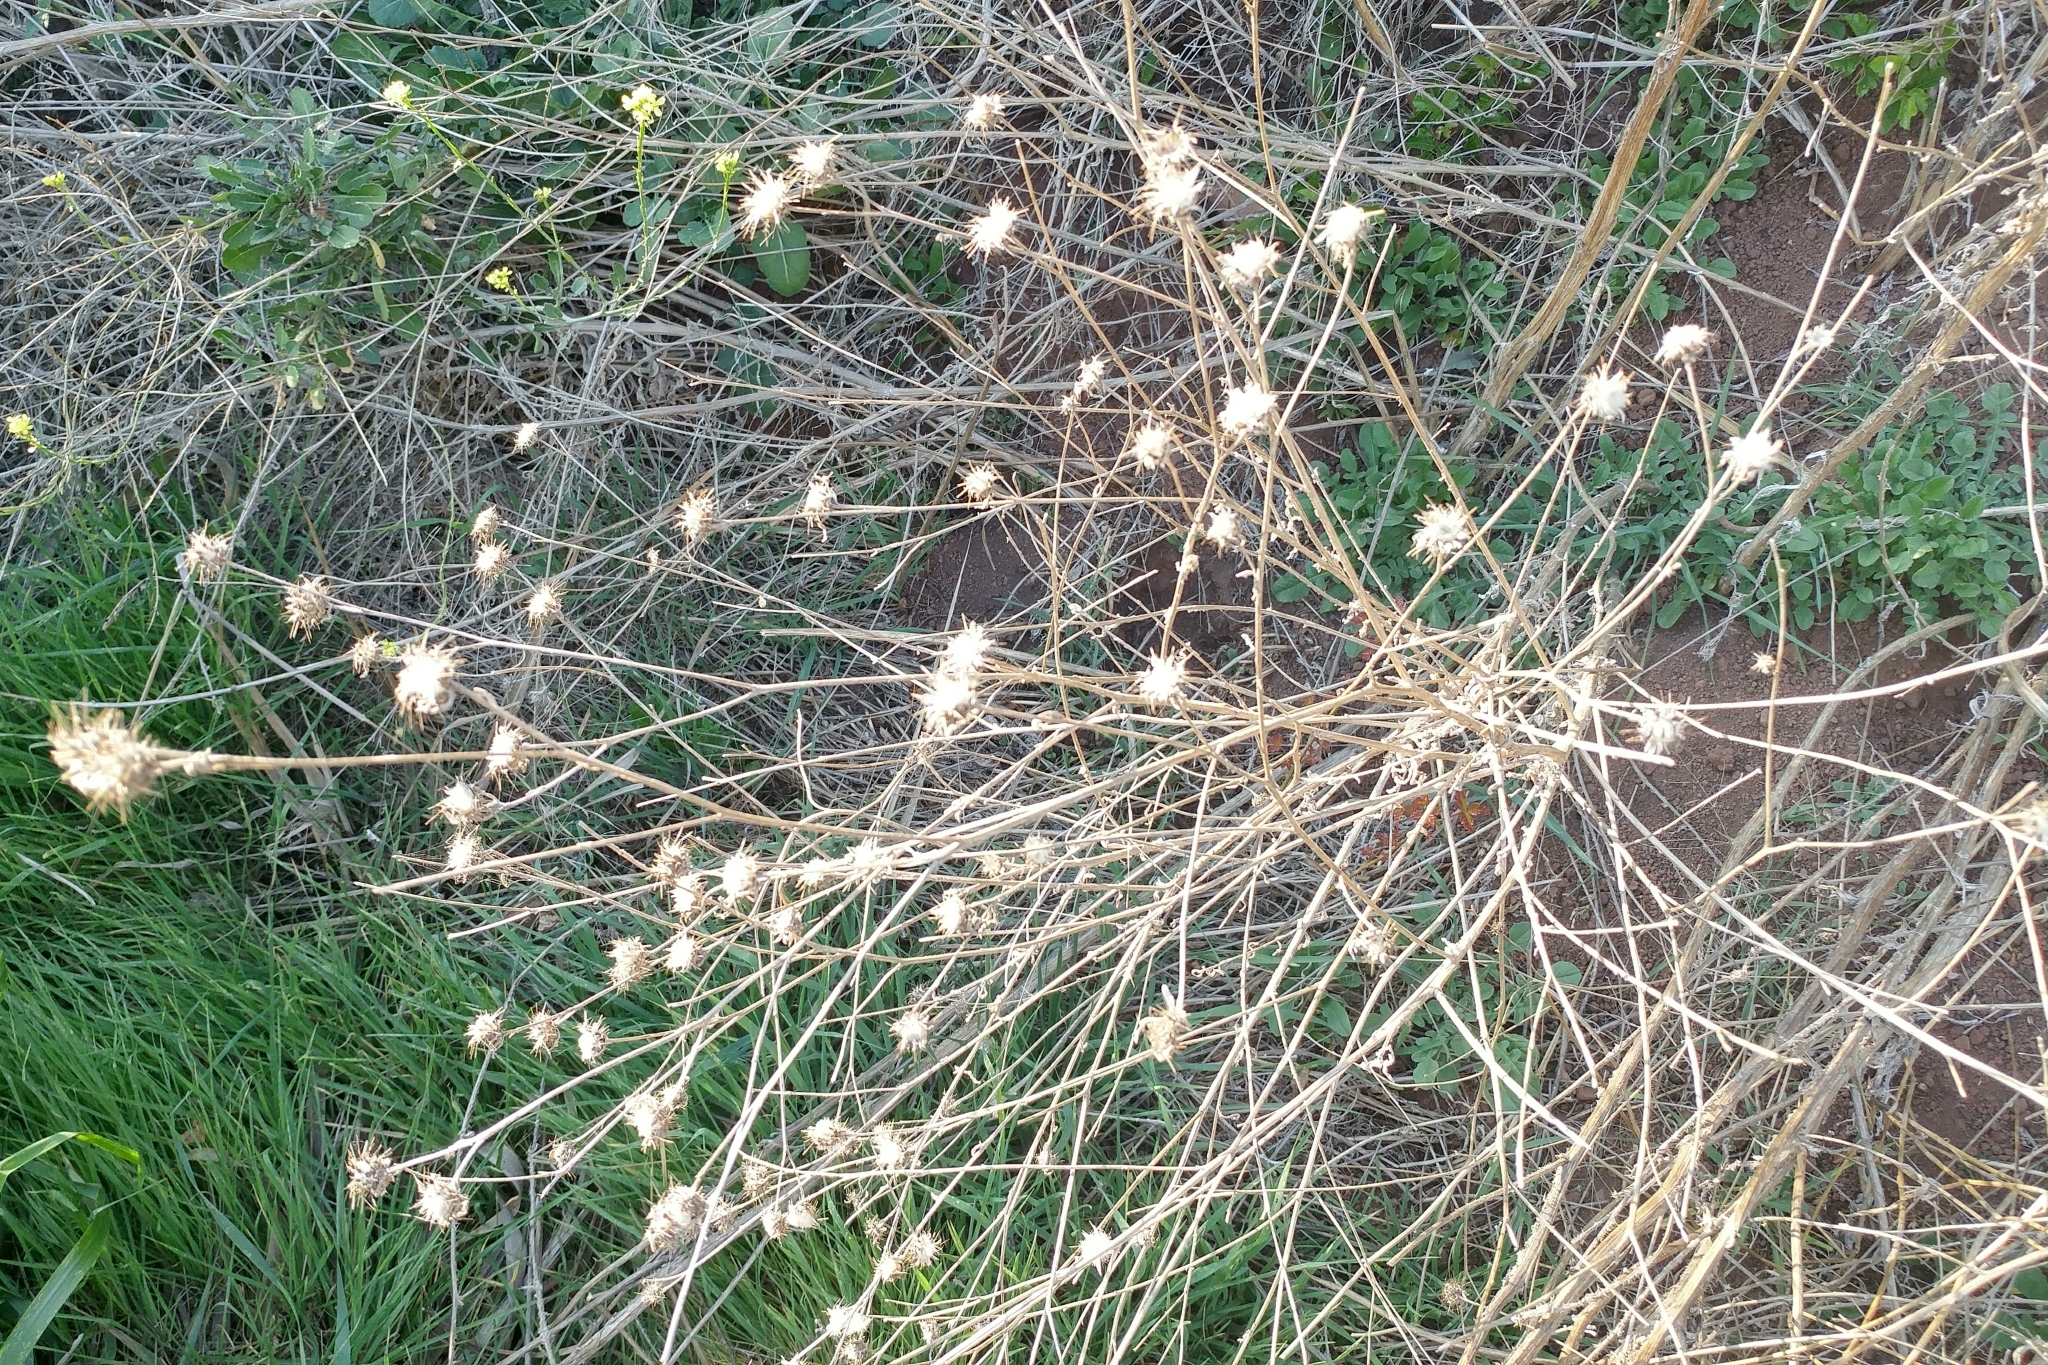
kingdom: Plantae
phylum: Tracheophyta
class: Magnoliopsida
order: Asterales
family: Asteraceae
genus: Centaurea
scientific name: Centaurea melitensis
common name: Maltese star-thistle
